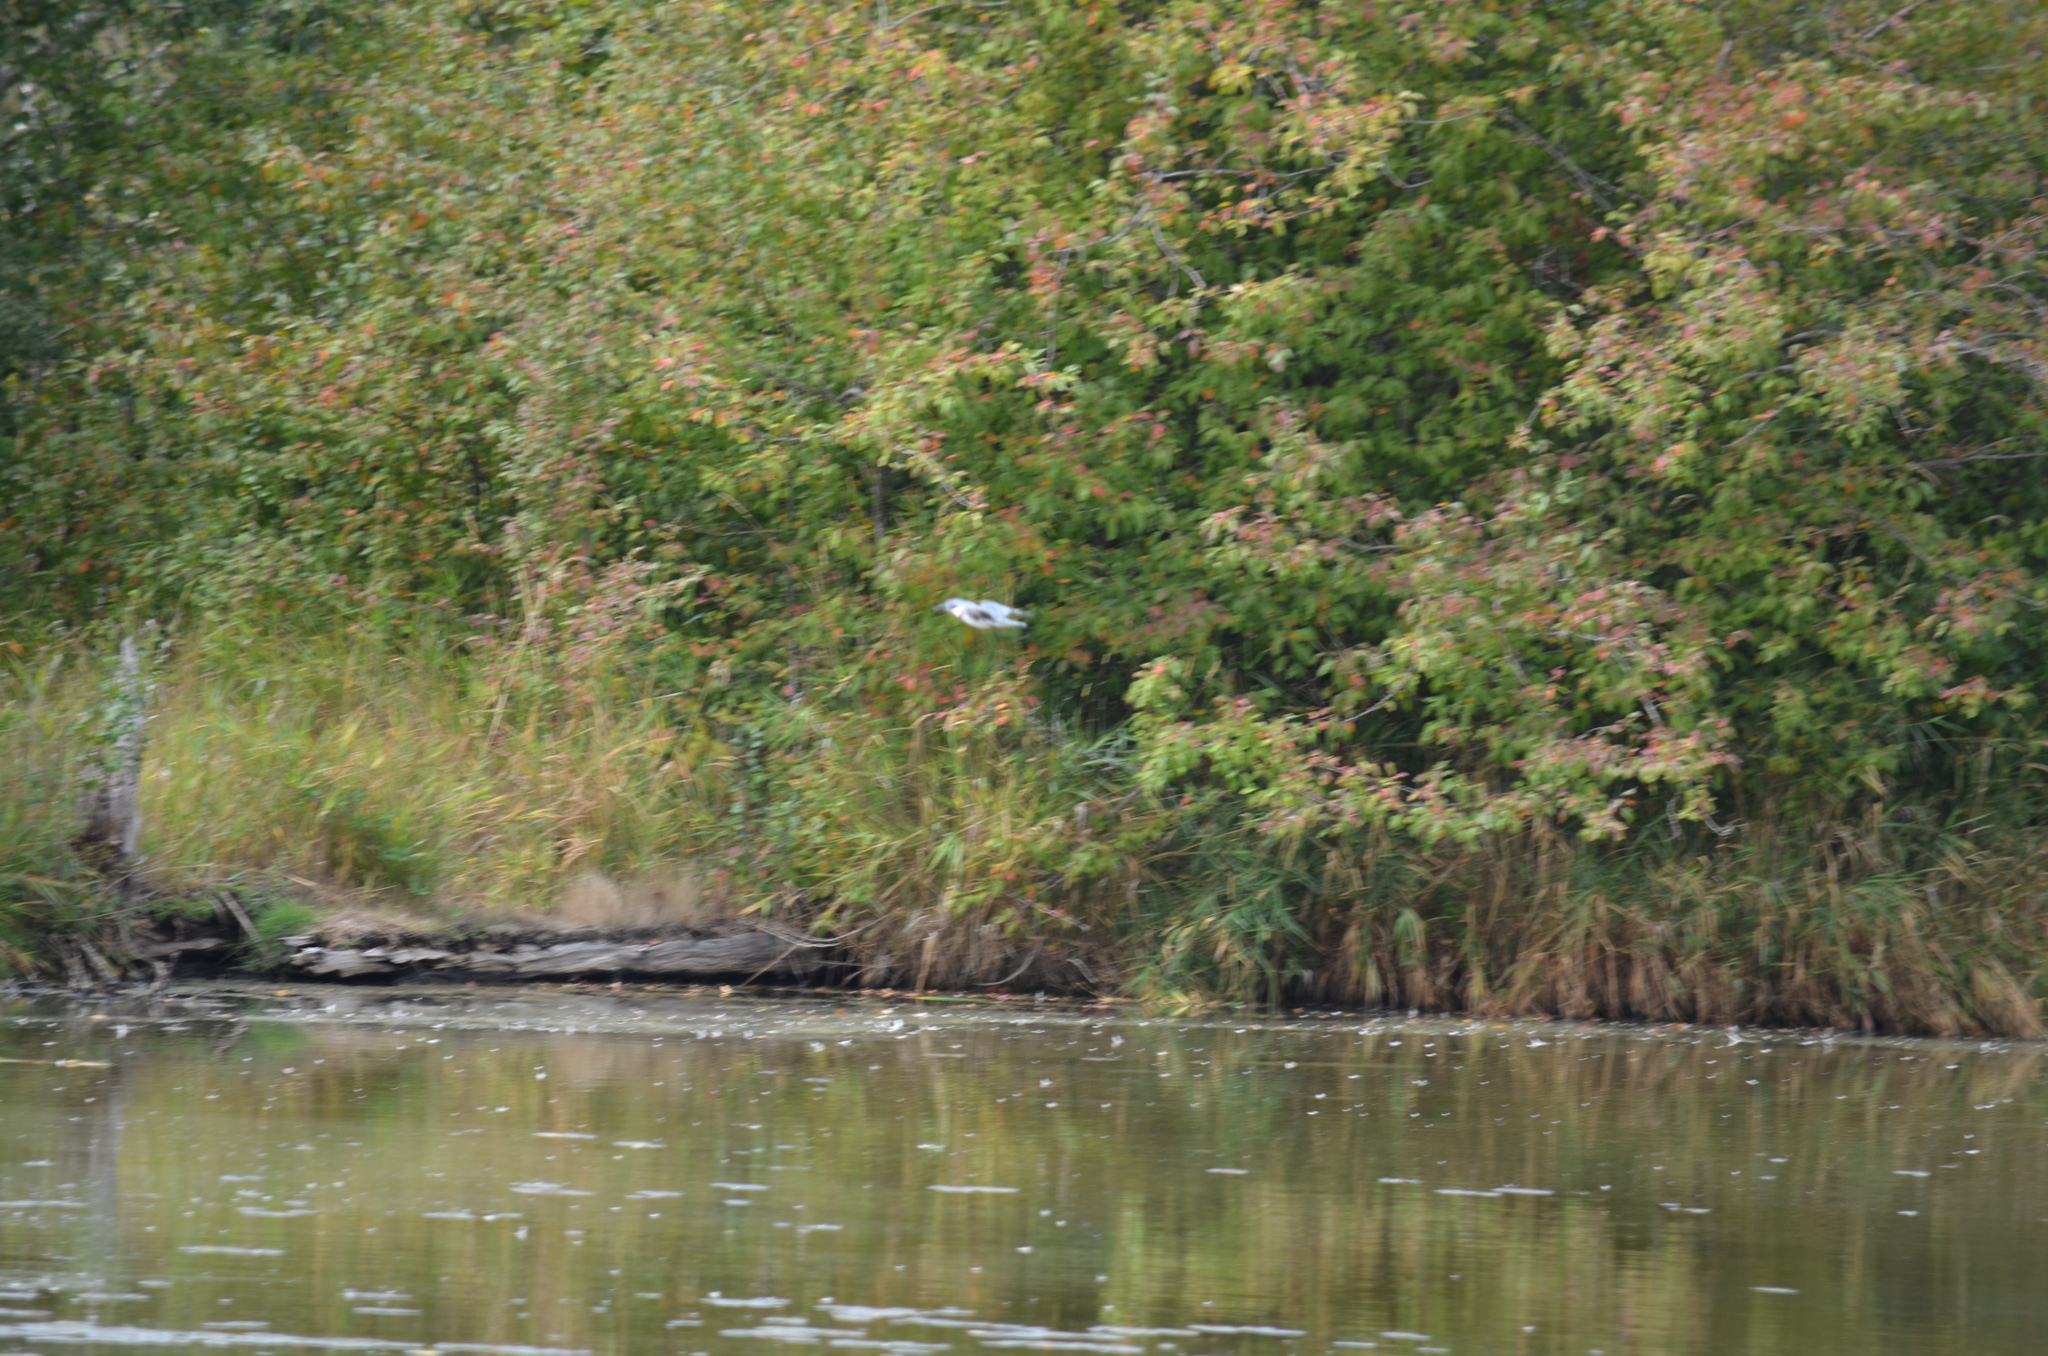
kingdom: Animalia
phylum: Chordata
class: Aves
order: Coraciiformes
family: Alcedinidae
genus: Megaceryle
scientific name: Megaceryle alcyon
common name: Belted kingfisher
